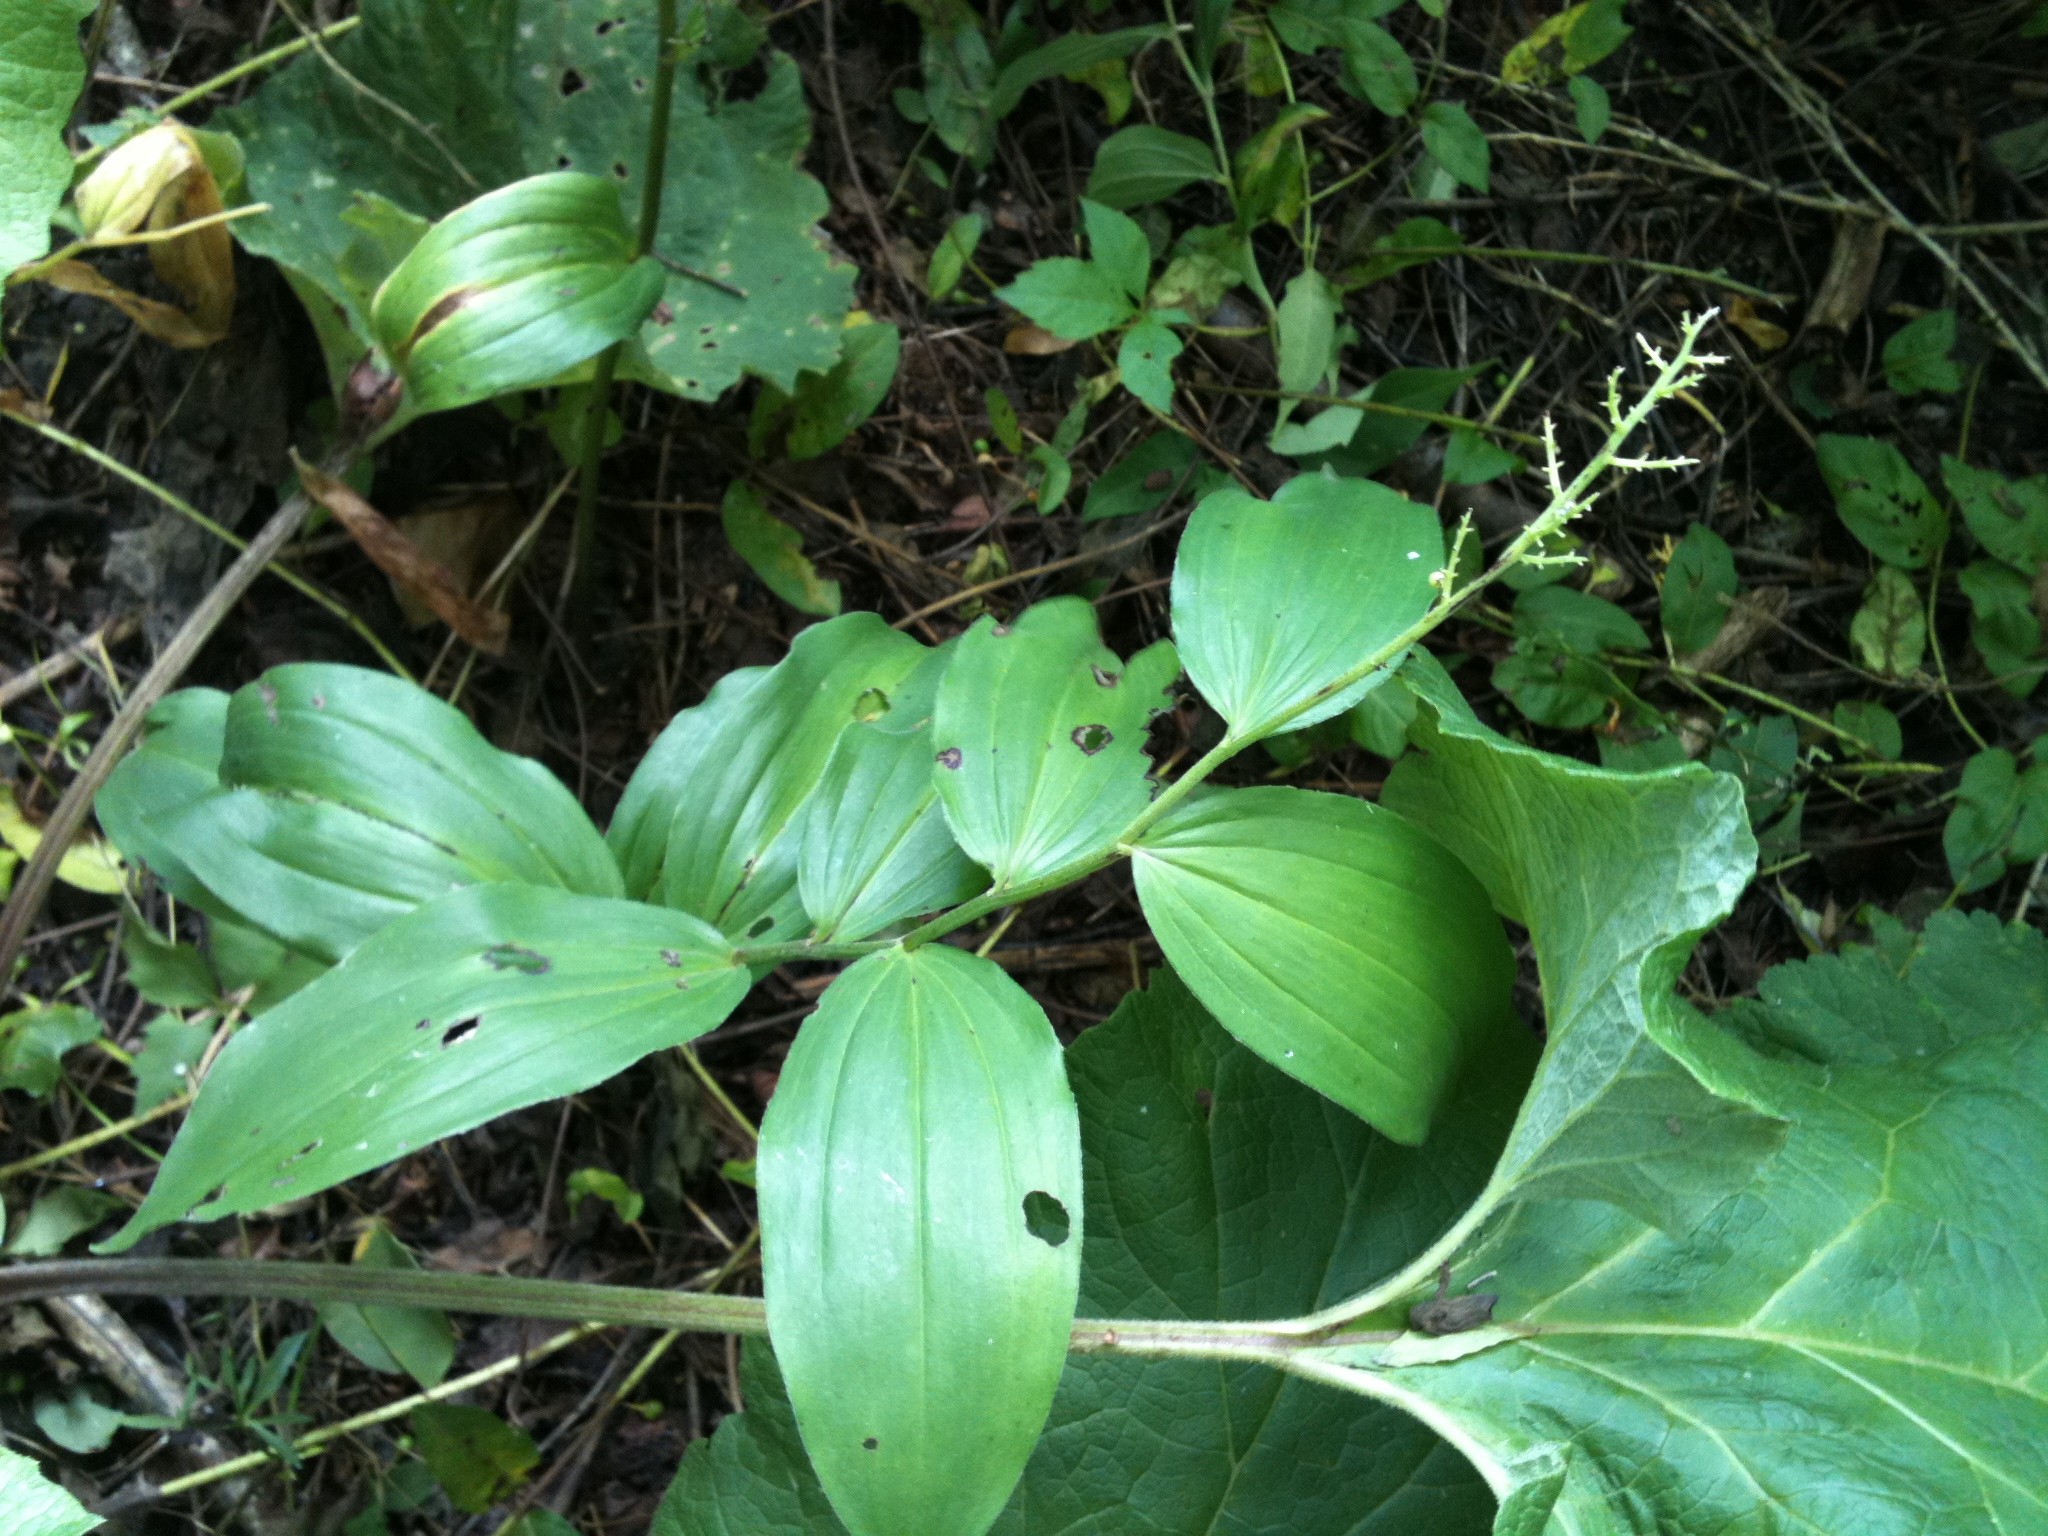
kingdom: Plantae
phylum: Tracheophyta
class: Liliopsida
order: Asparagales
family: Asparagaceae
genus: Maianthemum
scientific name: Maianthemum racemosum
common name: False spikenard
